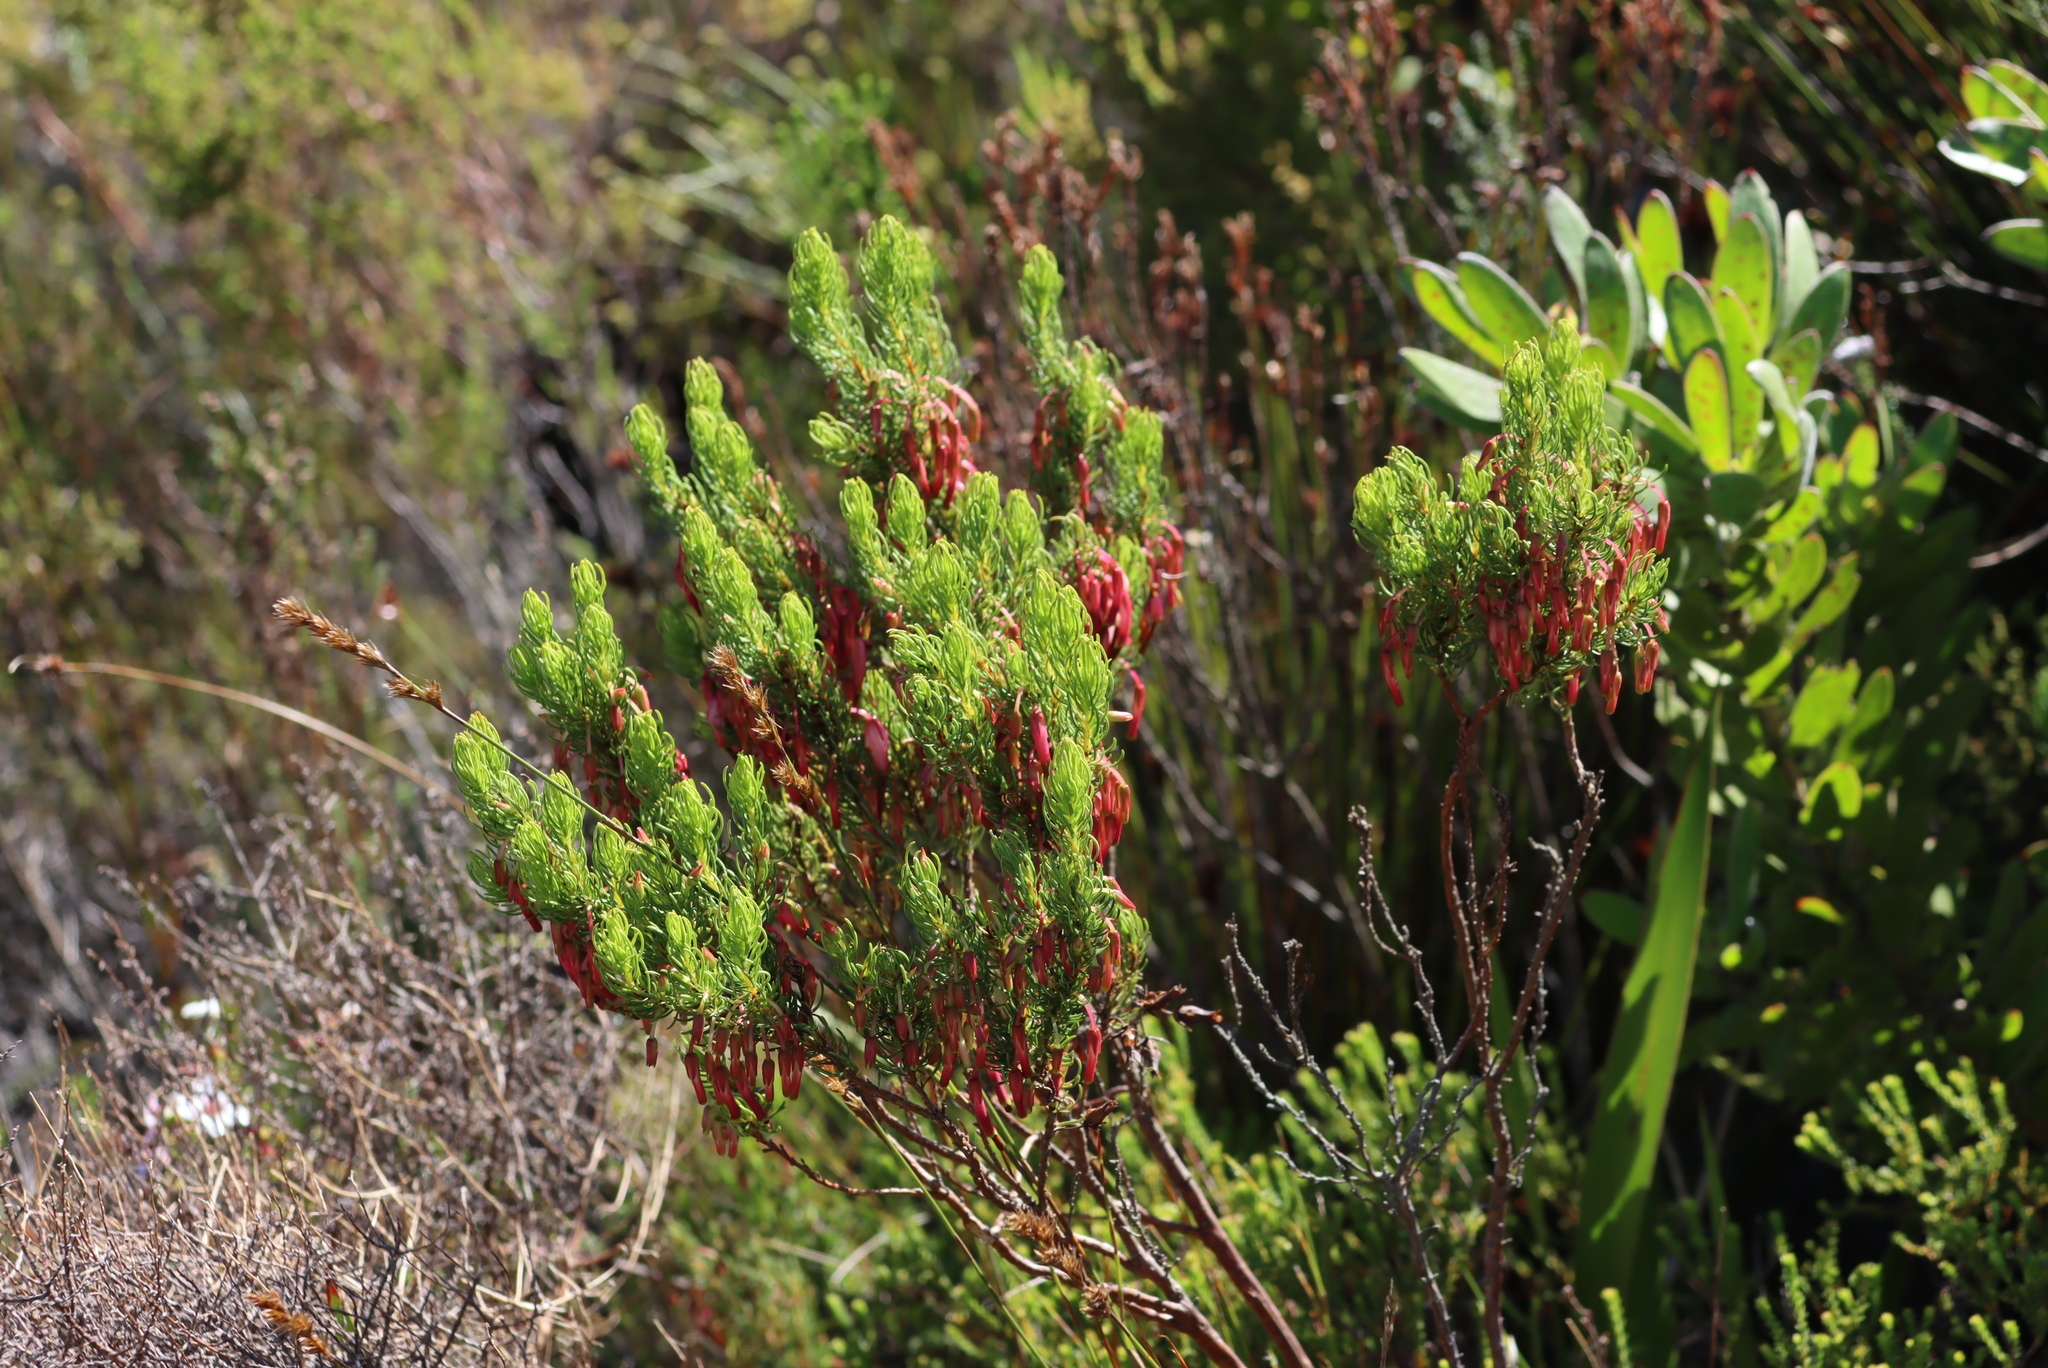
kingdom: Plantae
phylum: Tracheophyta
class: Magnoliopsida
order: Ericales
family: Ericaceae
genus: Erica
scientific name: Erica plukenetii
